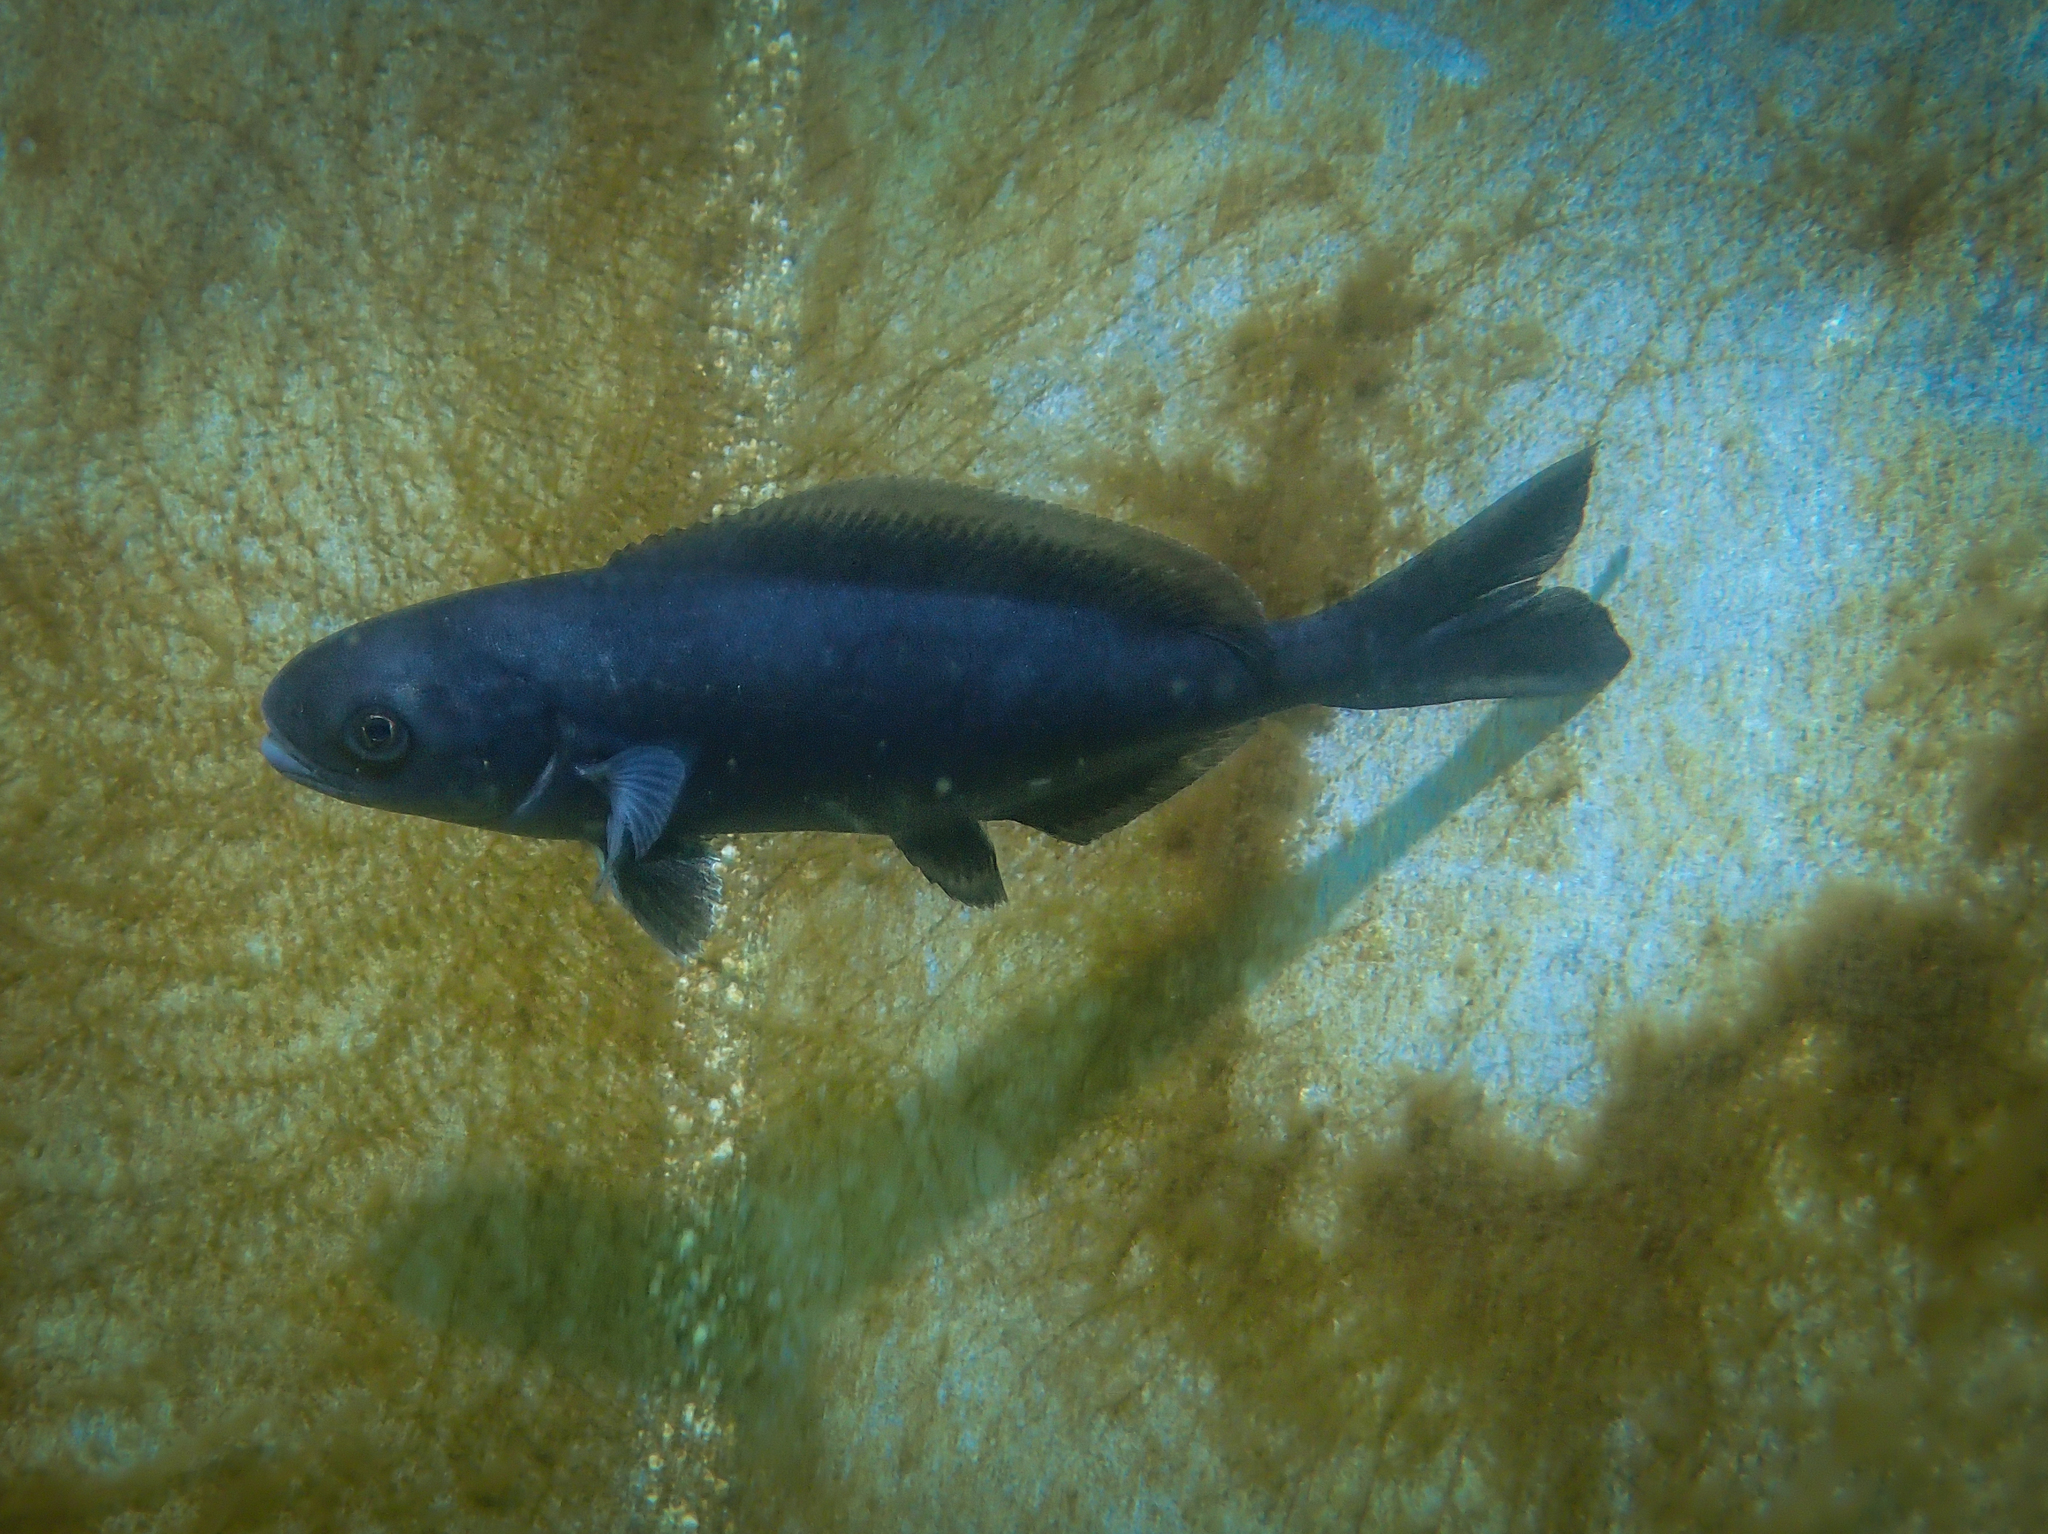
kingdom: Animalia
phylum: Chordata
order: Perciformes
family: Centrolophidae
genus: Centrolophus
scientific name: Centrolophus niger
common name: Blackfish
